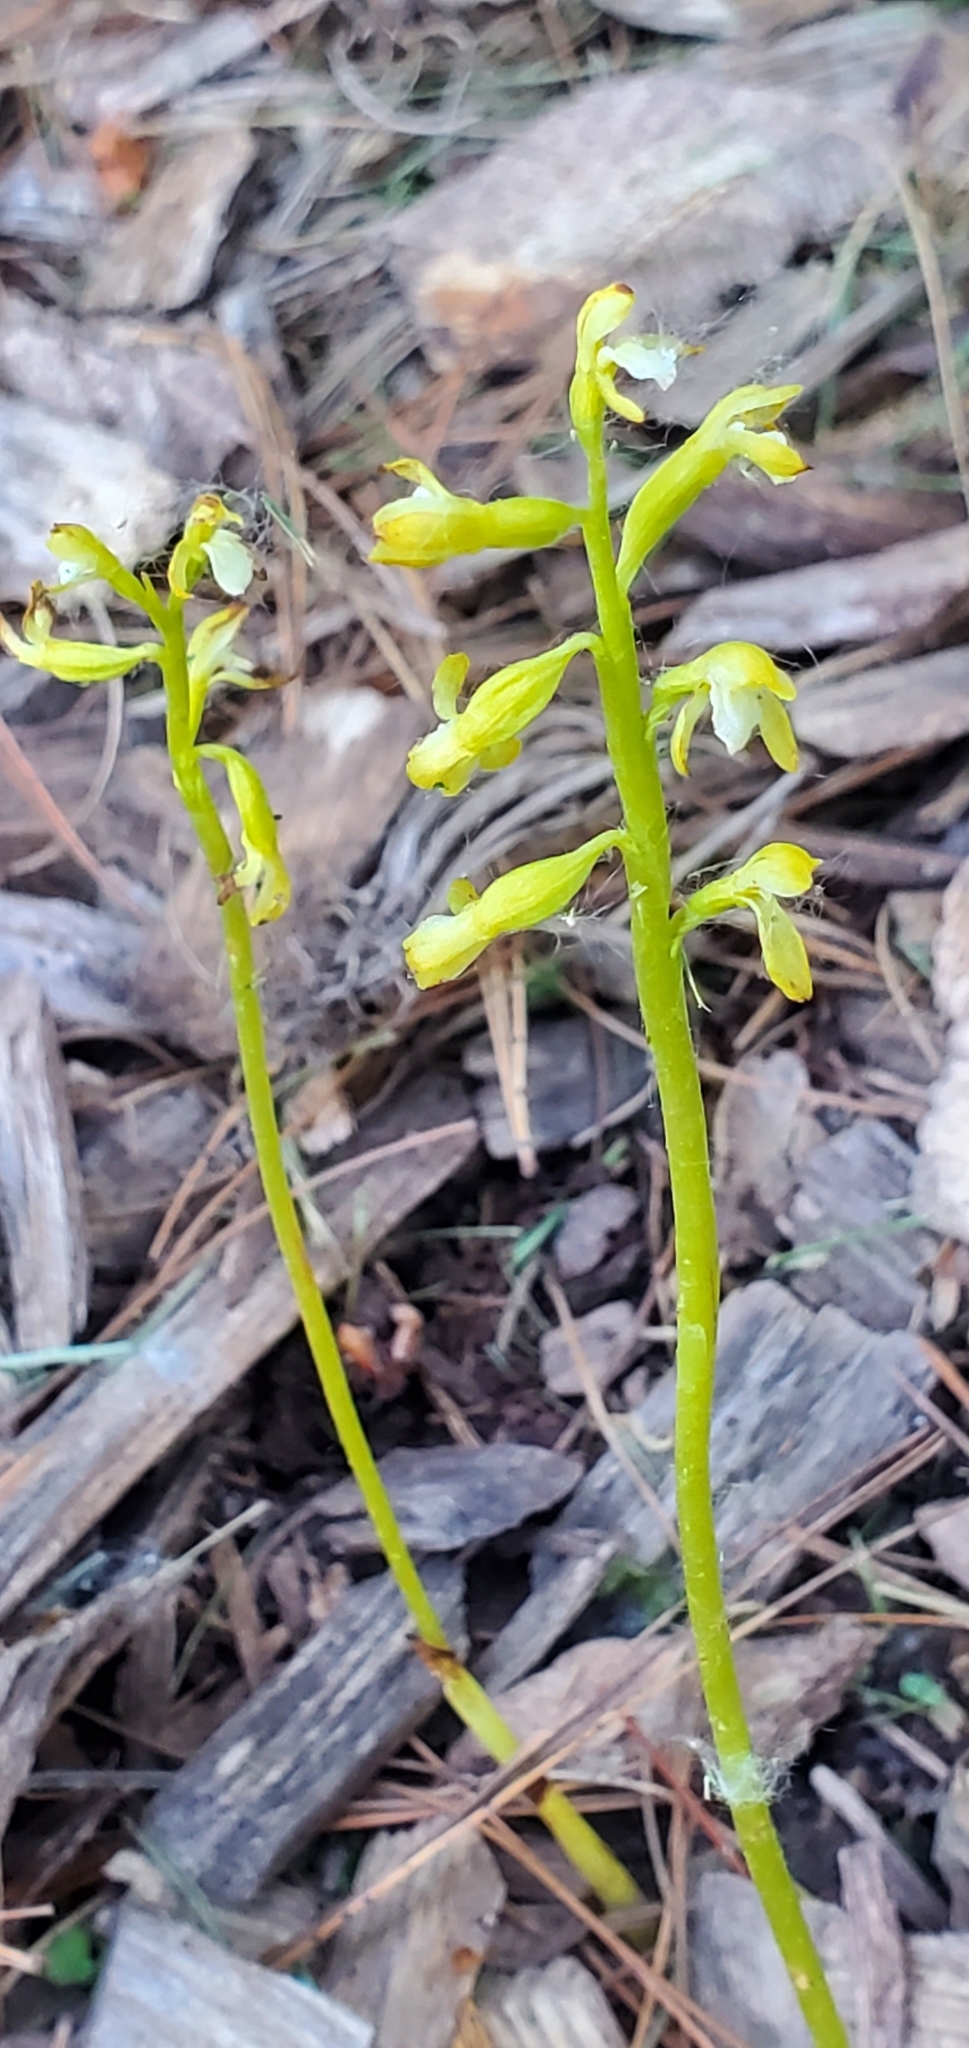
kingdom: Plantae
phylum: Tracheophyta
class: Liliopsida
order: Asparagales
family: Orchidaceae
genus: Corallorhiza
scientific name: Corallorhiza trifida
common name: Yellow coralroot
